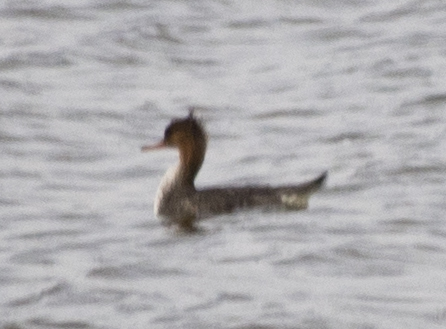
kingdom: Animalia
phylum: Chordata
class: Aves
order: Anseriformes
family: Anatidae
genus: Mergus
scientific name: Mergus serrator
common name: Red-breasted merganser
